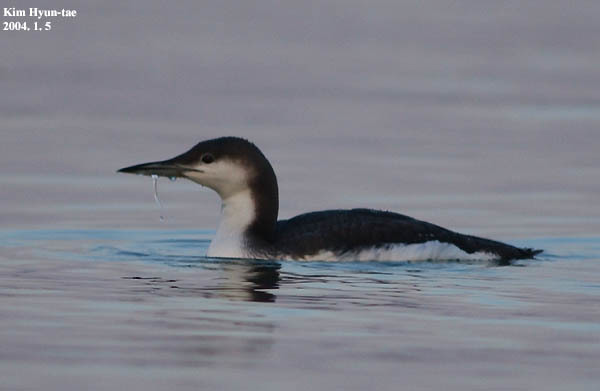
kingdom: Animalia
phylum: Chordata
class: Aves
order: Gaviiformes
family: Gaviidae
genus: Gavia
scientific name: Gavia arctica
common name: Black-throated loon
